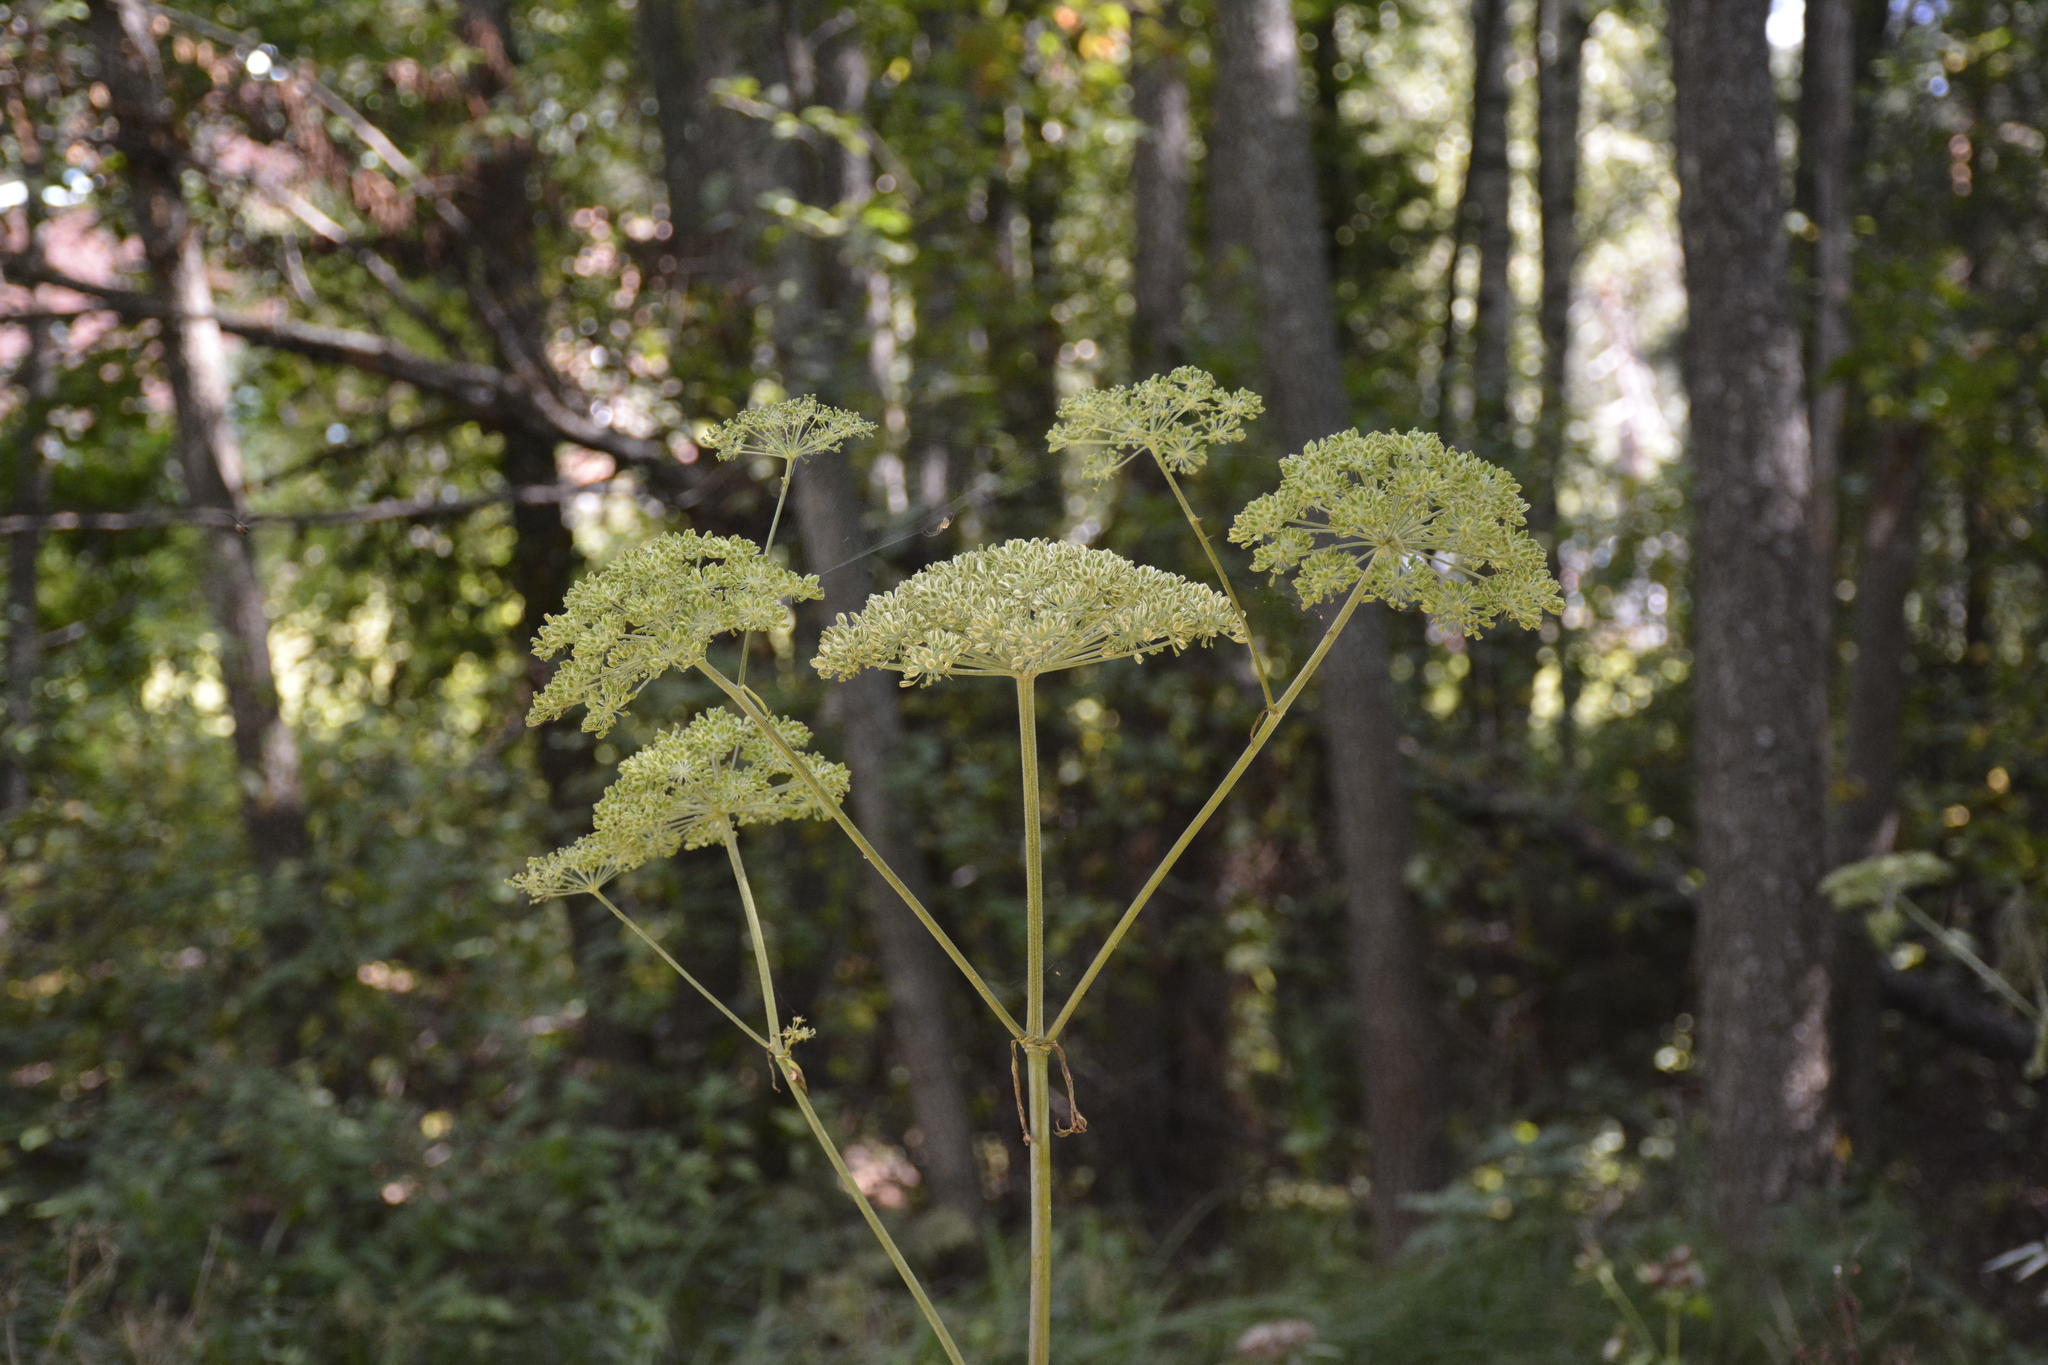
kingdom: Plantae
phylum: Tracheophyta
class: Magnoliopsida
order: Apiales
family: Apiaceae
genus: Angelica
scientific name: Angelica sylvestris
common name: Wild angelica
